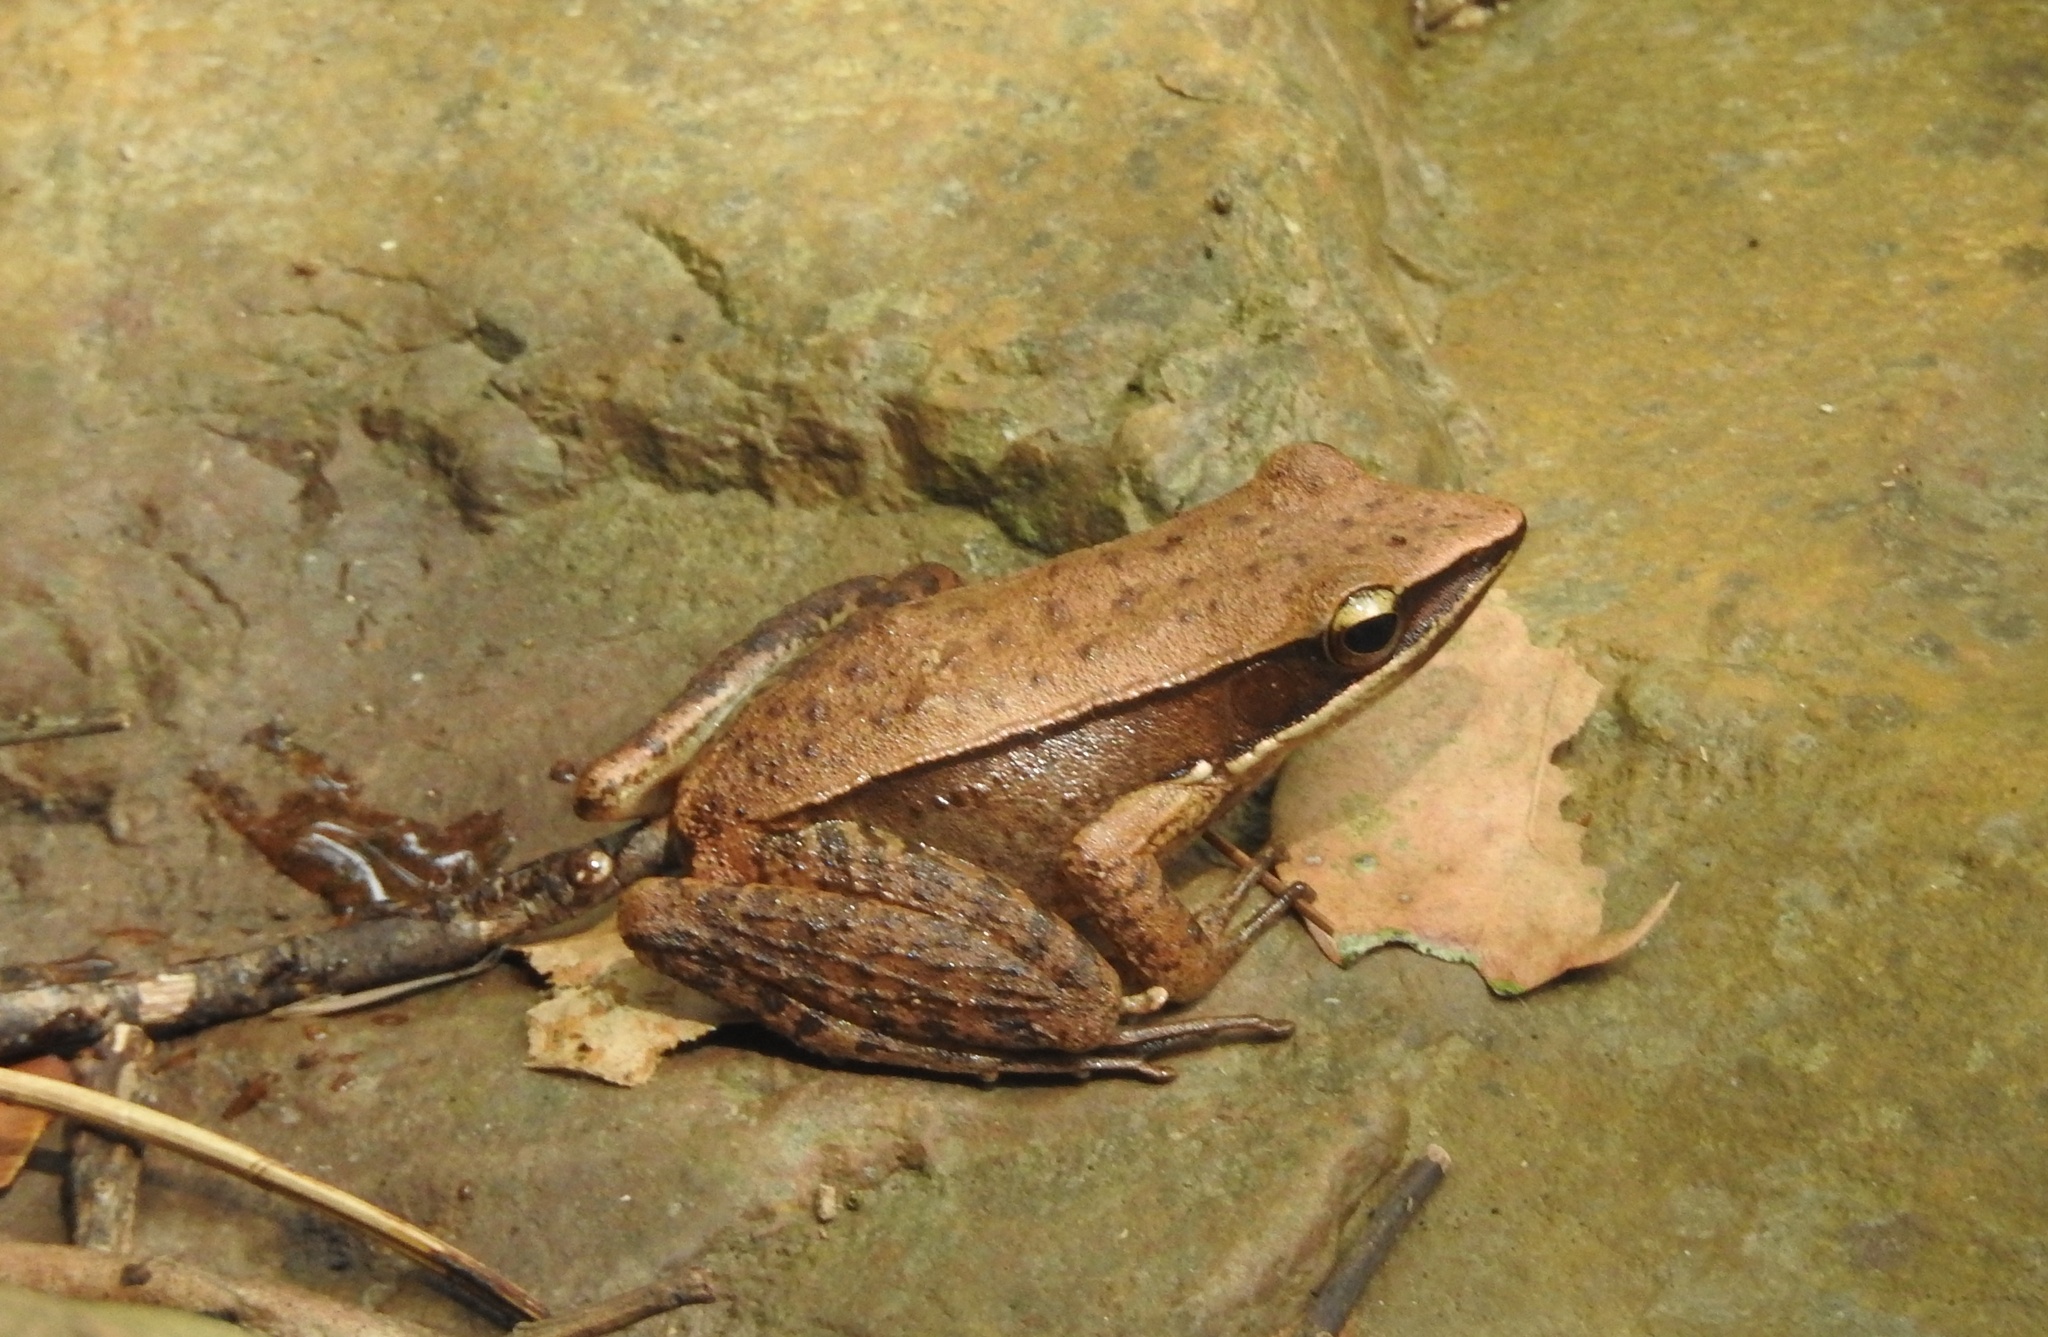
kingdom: Animalia
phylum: Chordata
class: Amphibia
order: Anura
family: Ranidae
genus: Indosylvirana
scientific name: Indosylvirana sreeni
